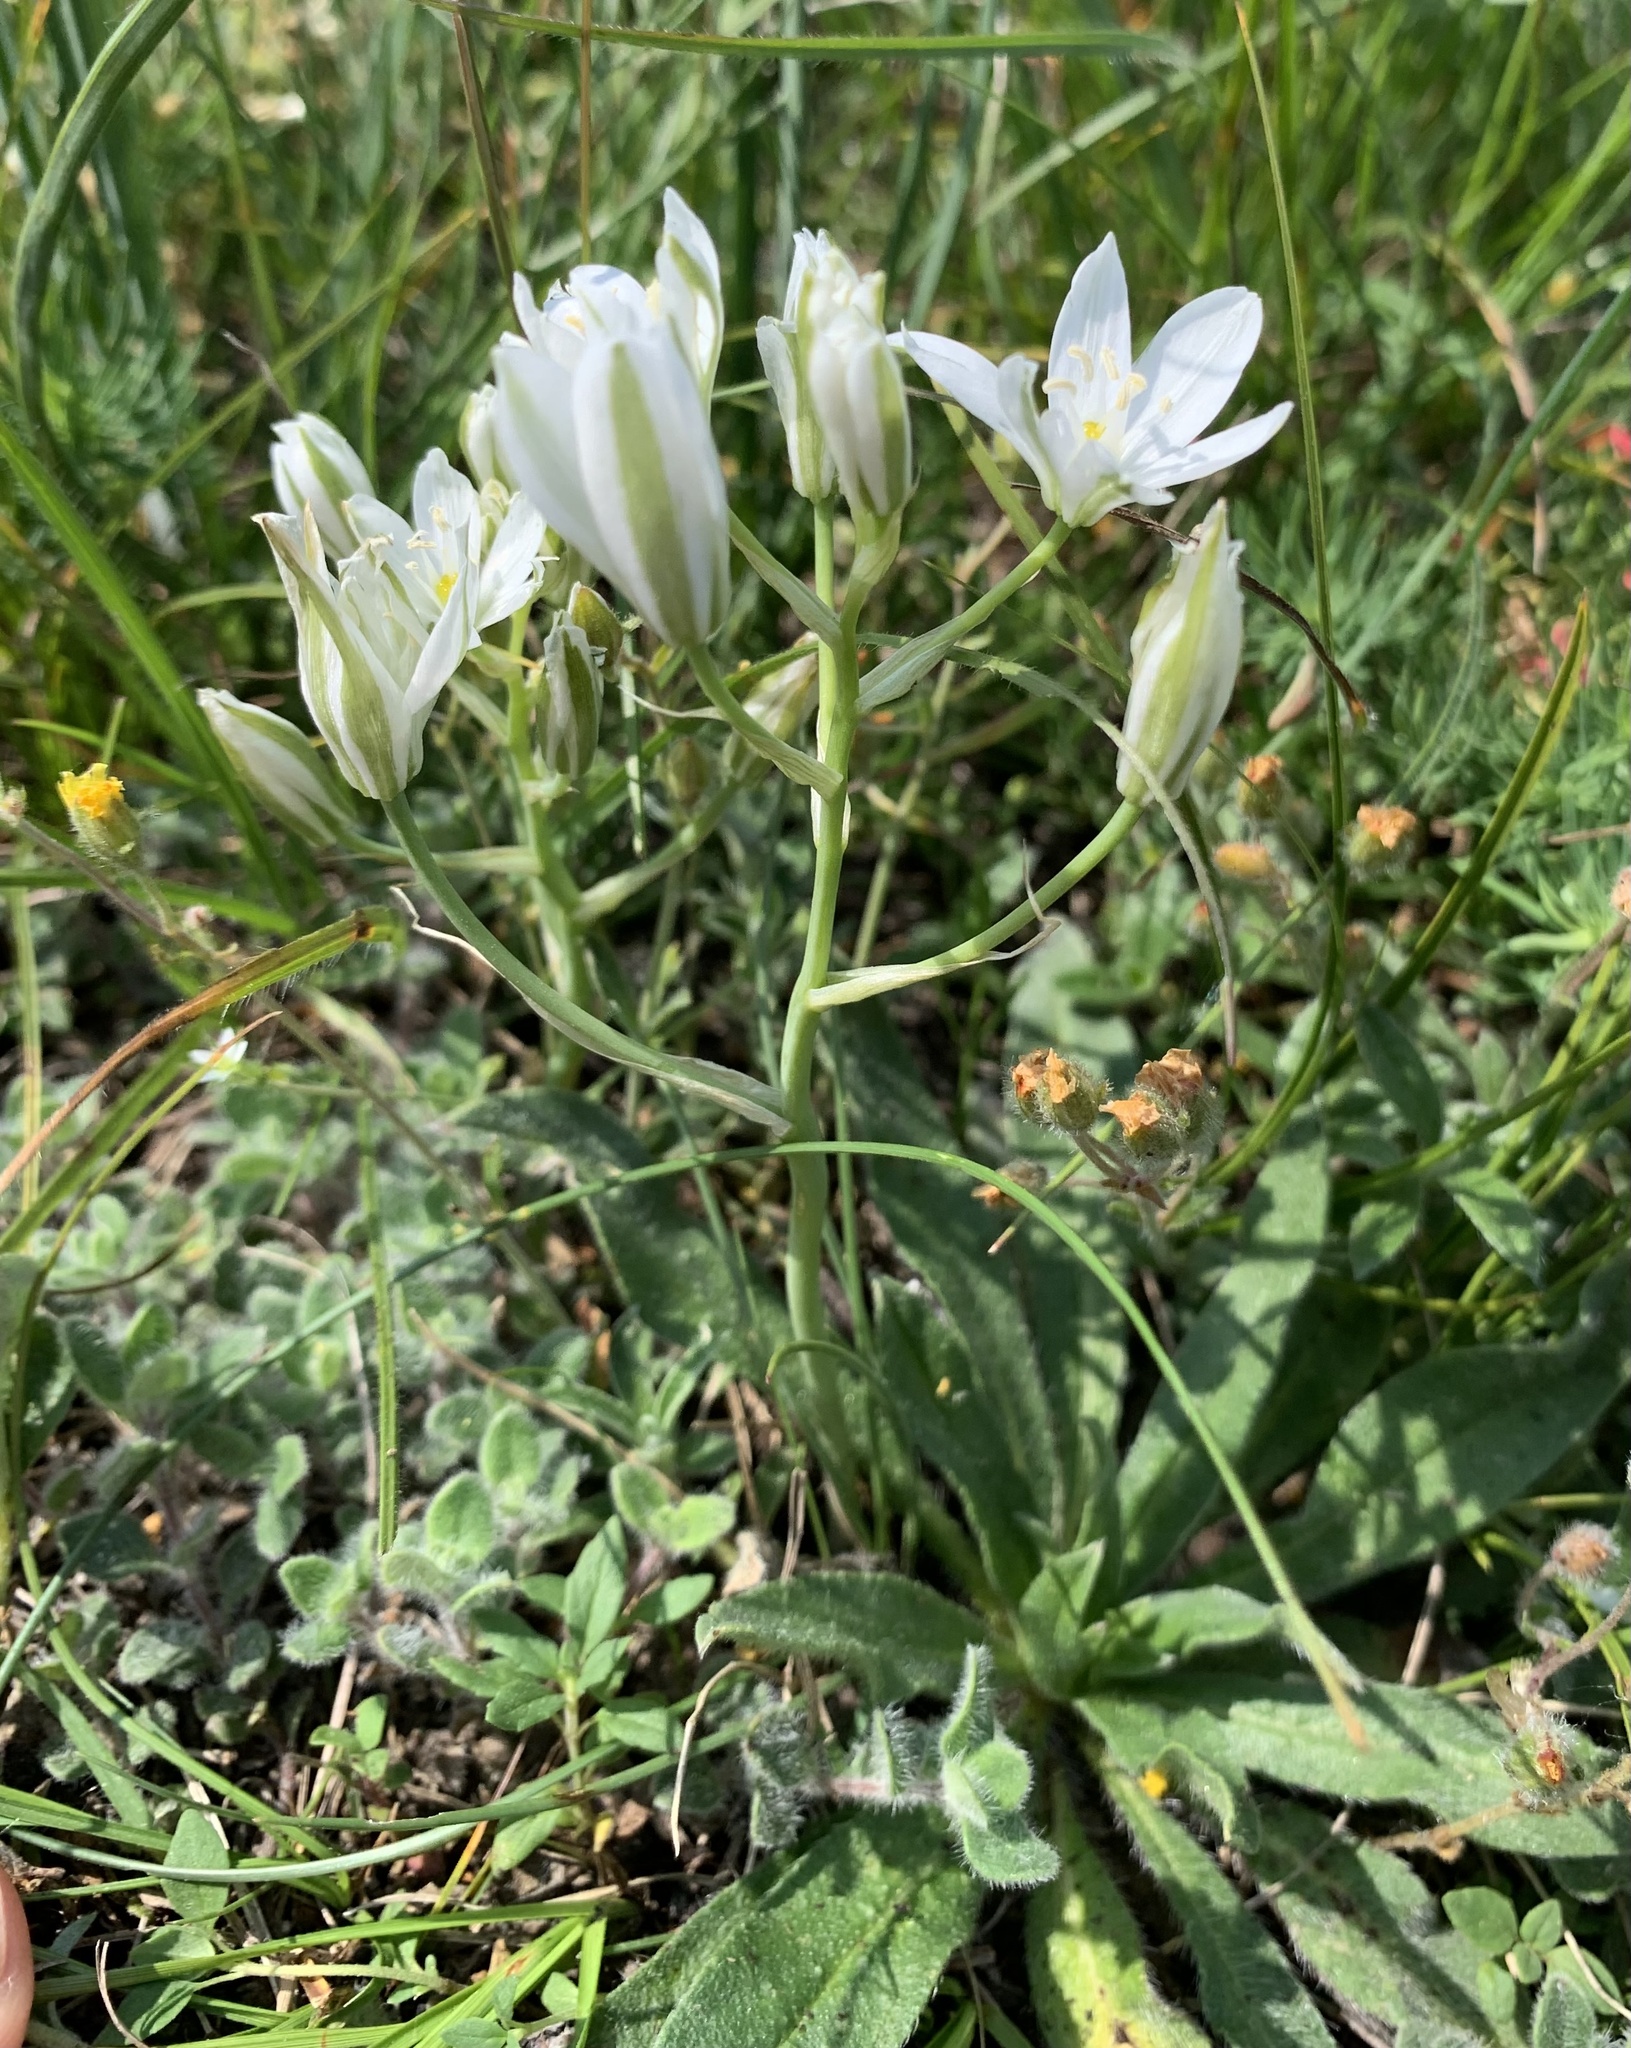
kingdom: Plantae
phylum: Tracheophyta
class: Liliopsida
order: Asparagales
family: Asparagaceae
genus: Ornithogalum
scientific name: Ornithogalum comosum
